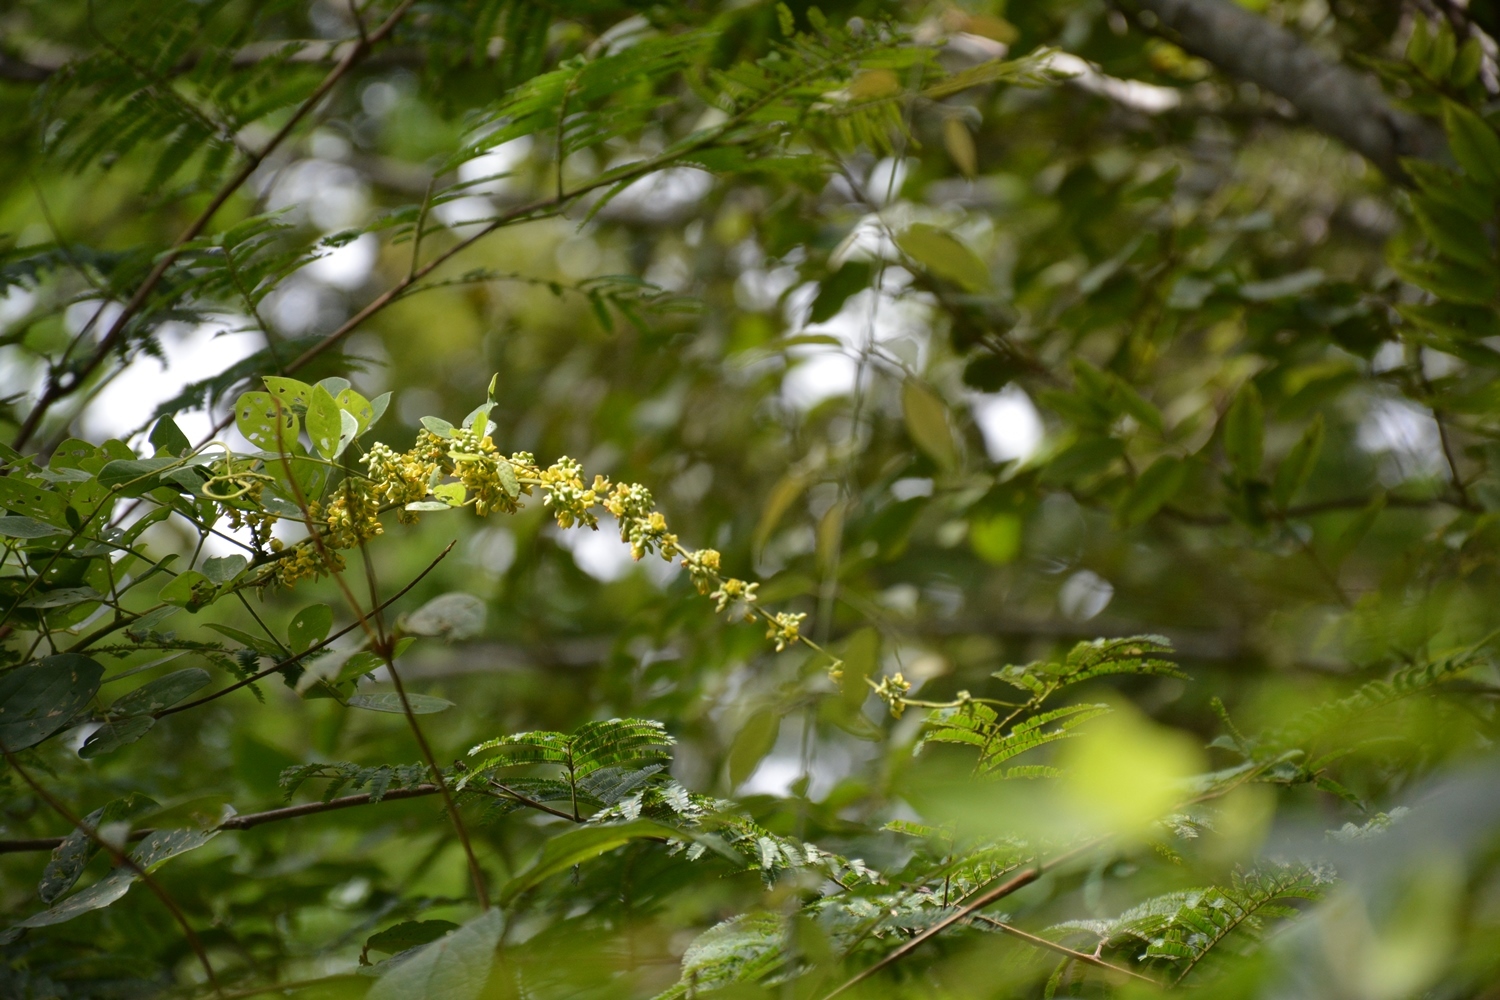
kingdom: Plantae
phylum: Tracheophyta
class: Magnoliopsida
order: Fabales
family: Fabaceae
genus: Nissolia
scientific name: Nissolia fruticosa
